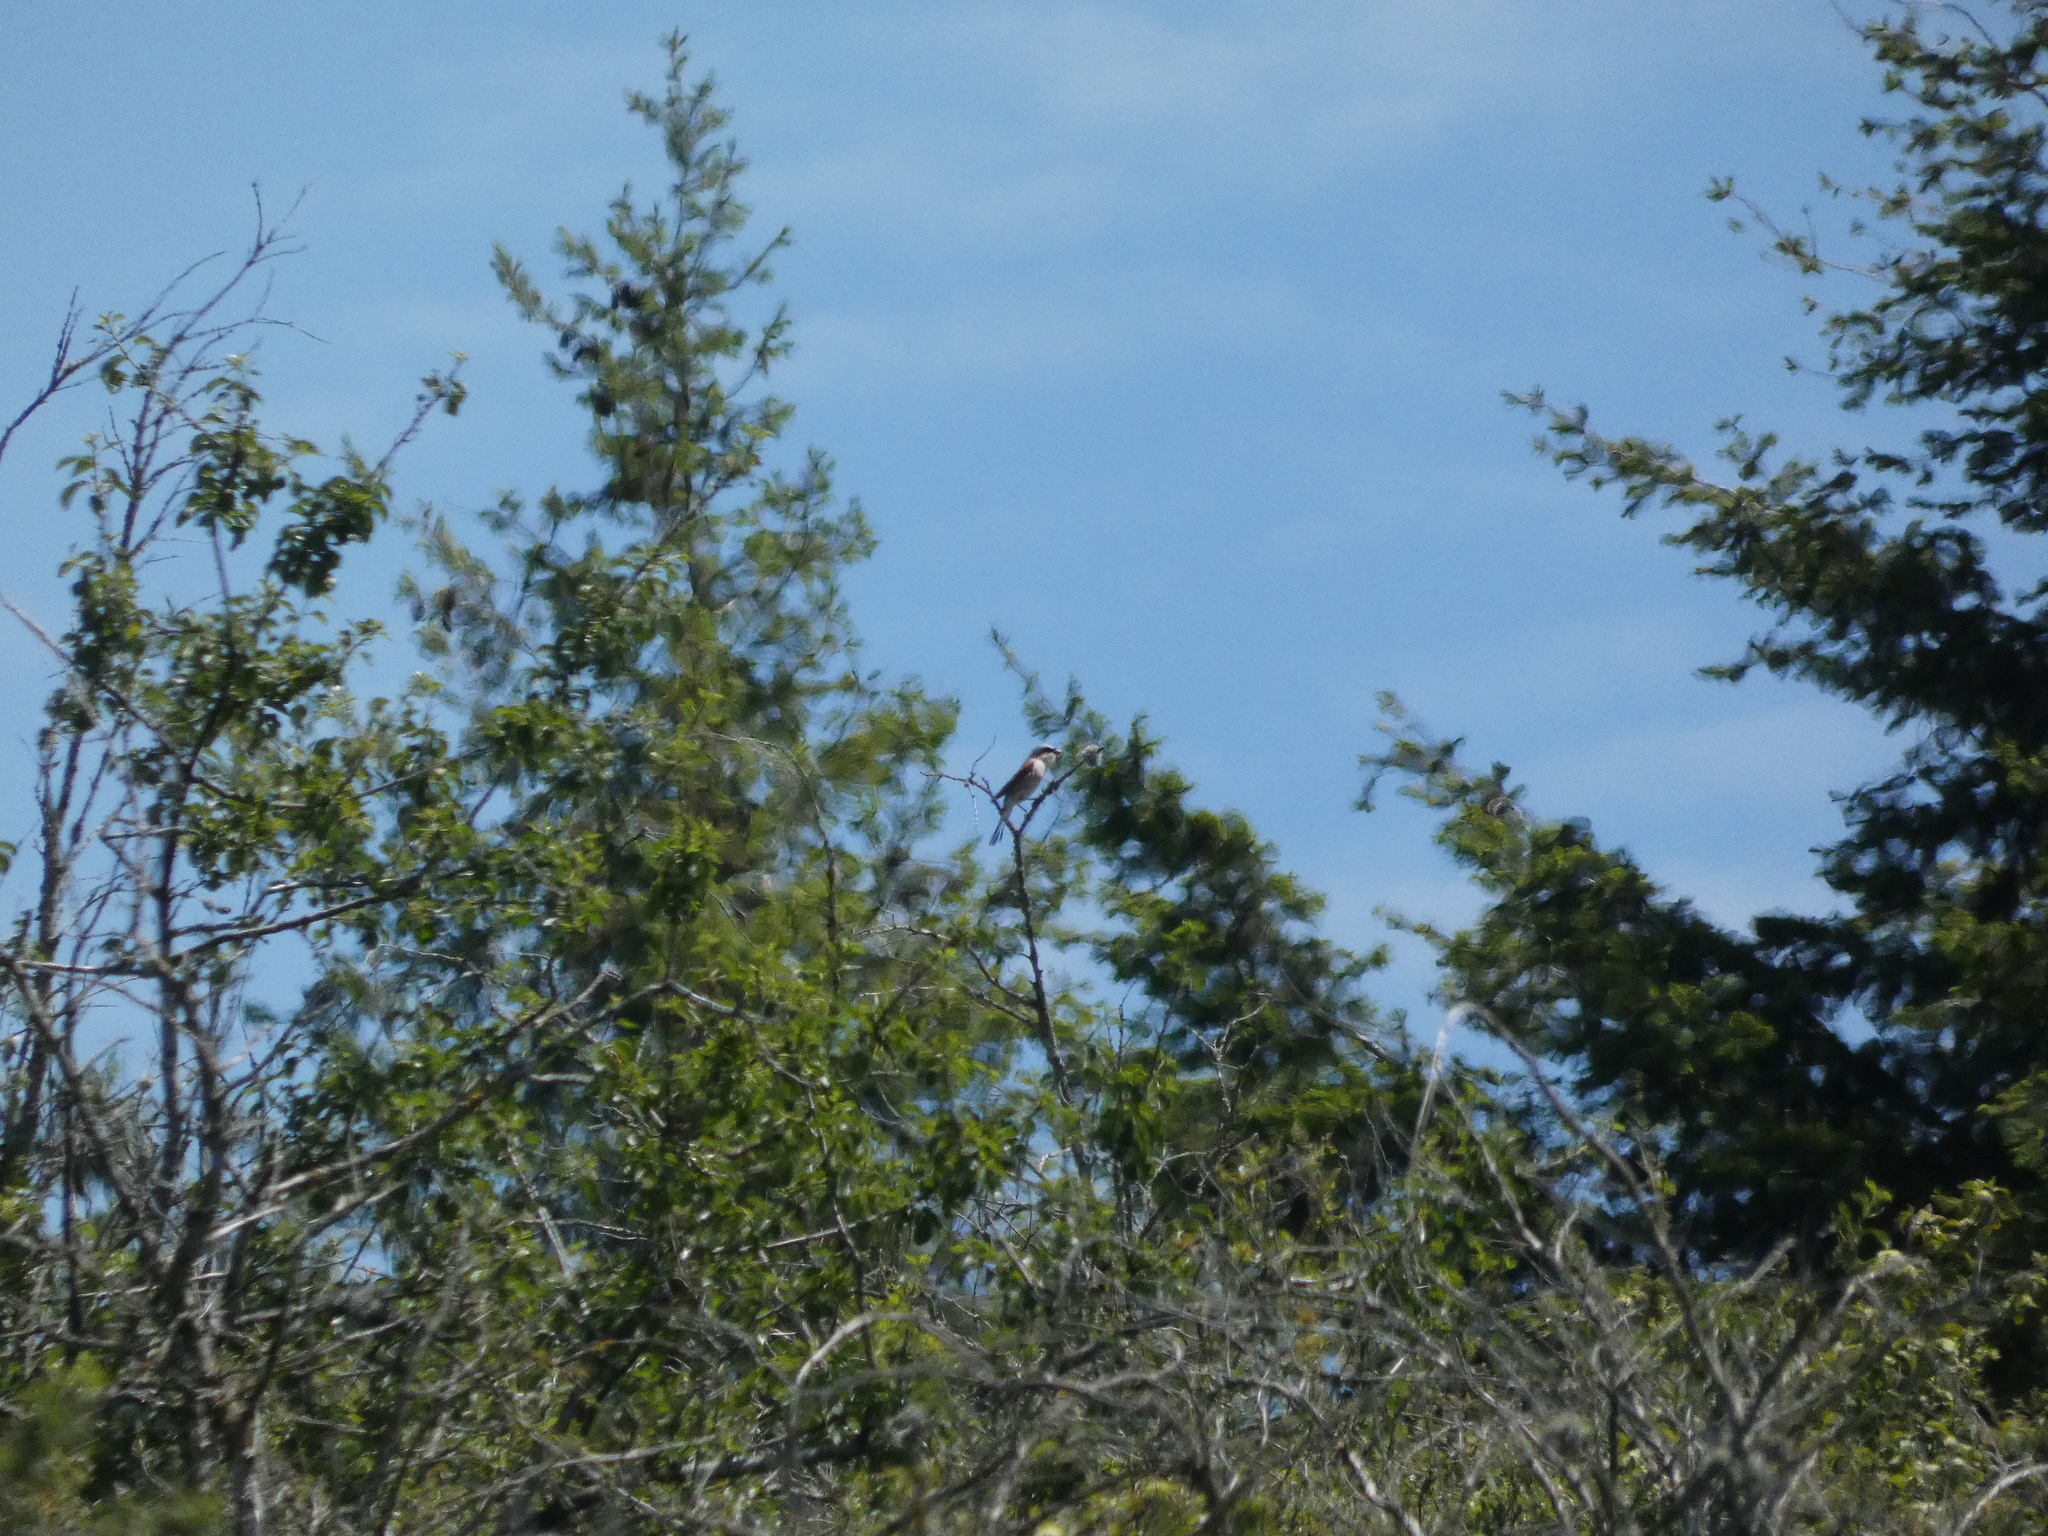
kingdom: Animalia
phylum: Chordata
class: Aves
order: Passeriformes
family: Laniidae
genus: Lanius
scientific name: Lanius collurio
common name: Red-backed shrike
